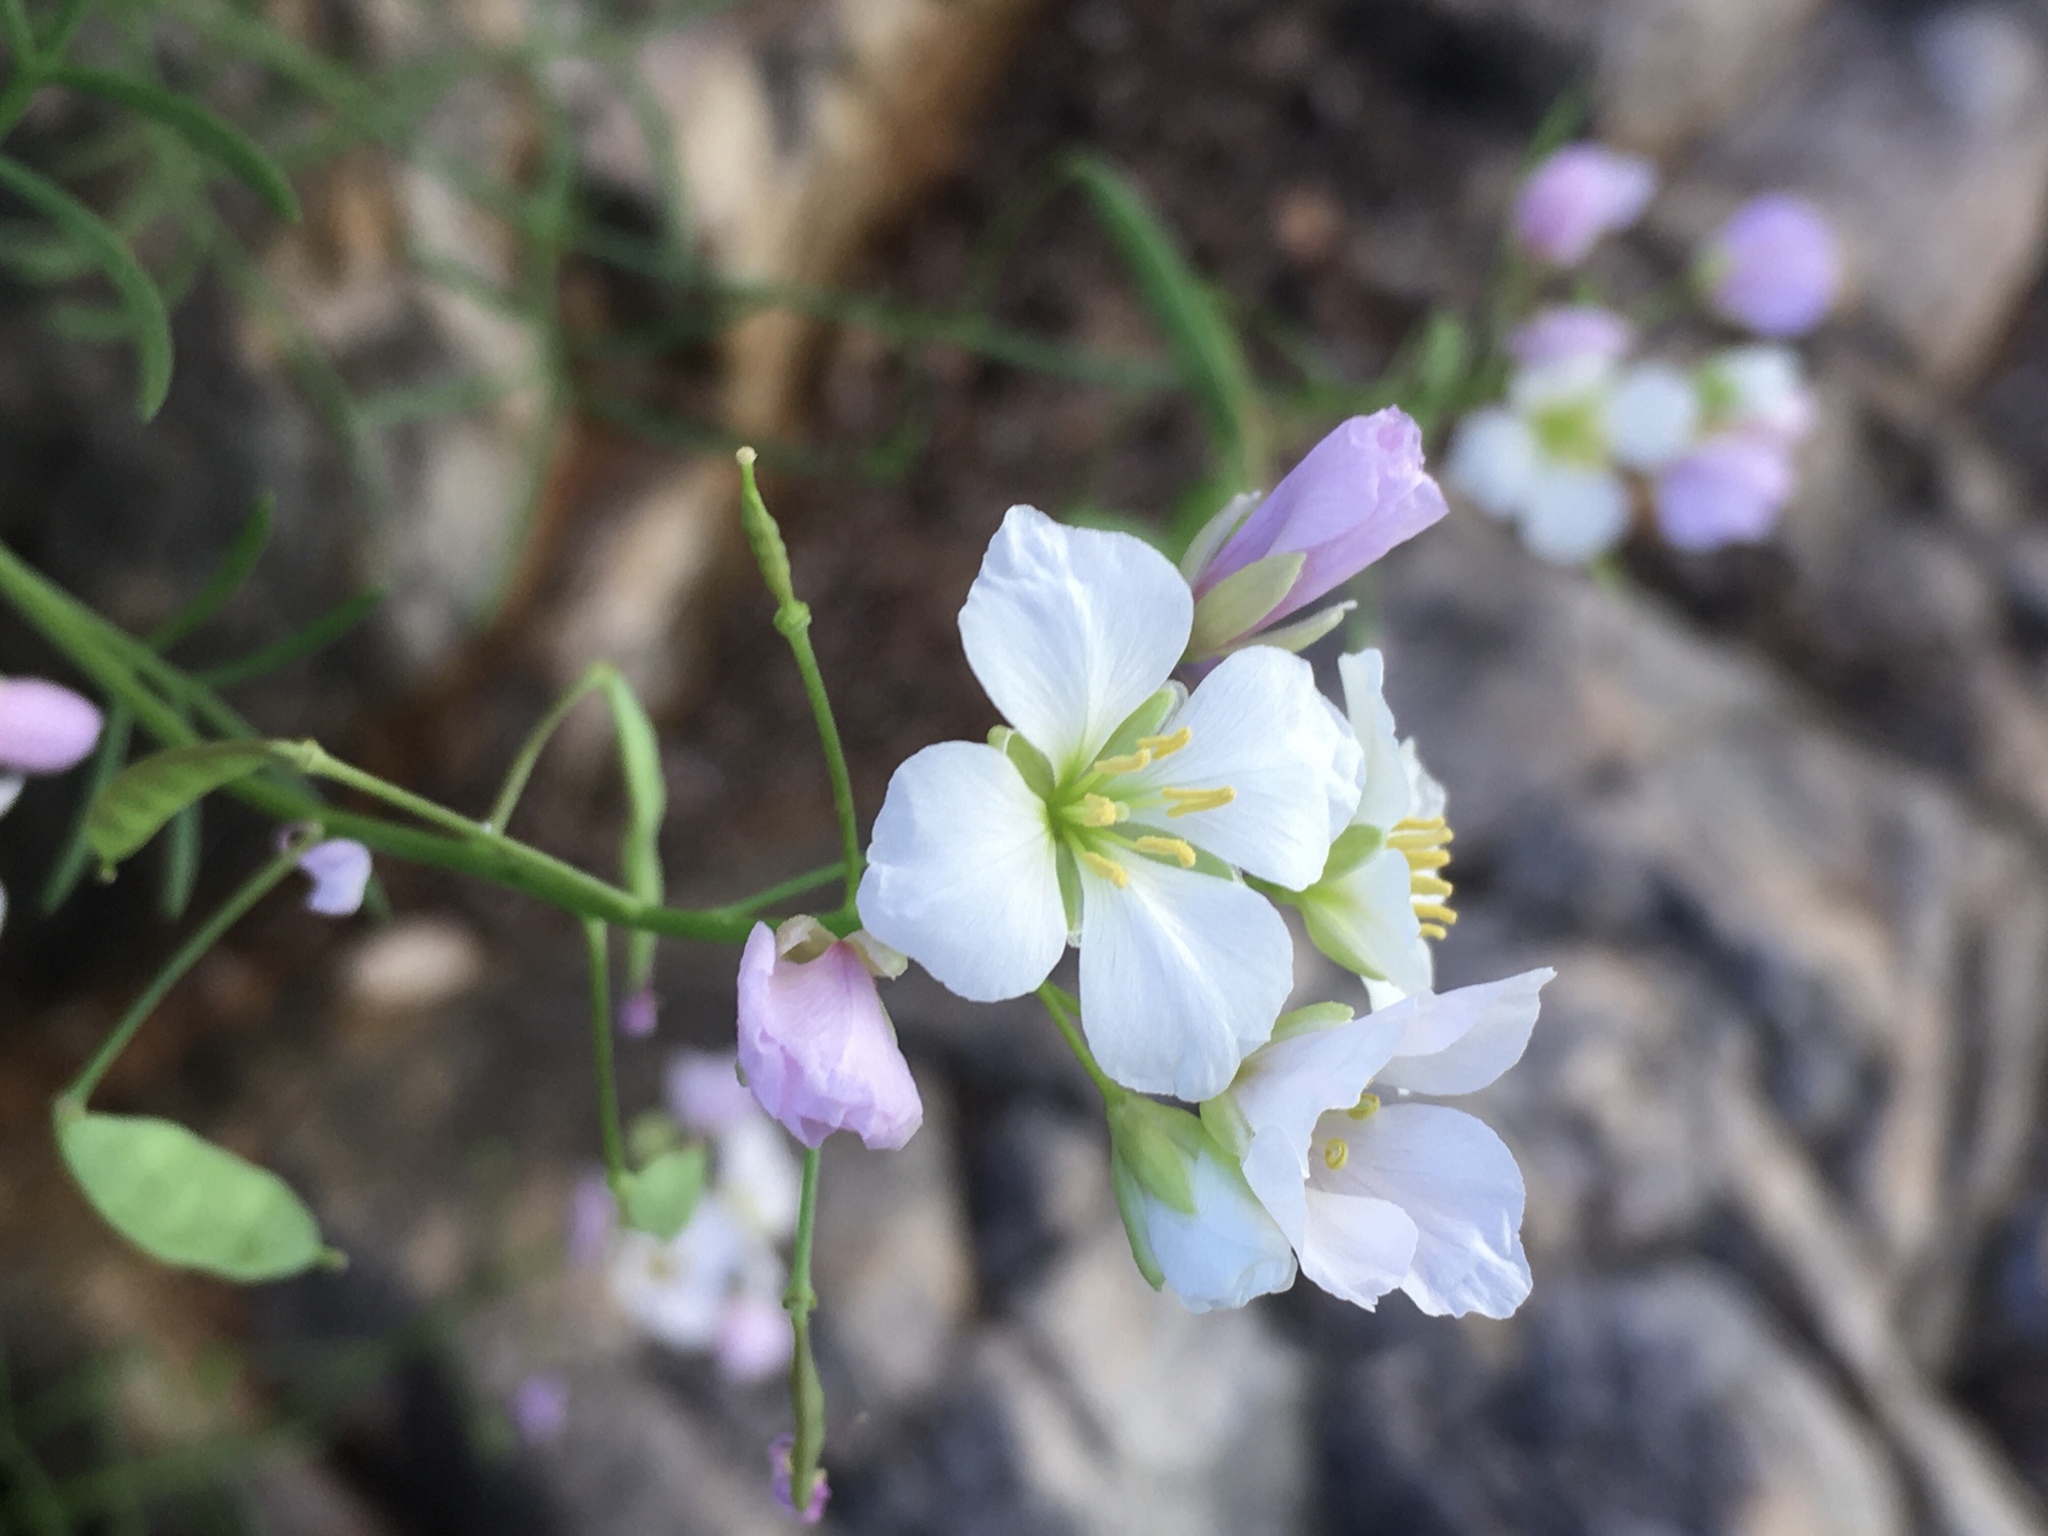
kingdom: Plantae
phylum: Tracheophyta
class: Magnoliopsida
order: Brassicales
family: Brassicaceae
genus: Heliophila
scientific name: Heliophila pseudoeximia
